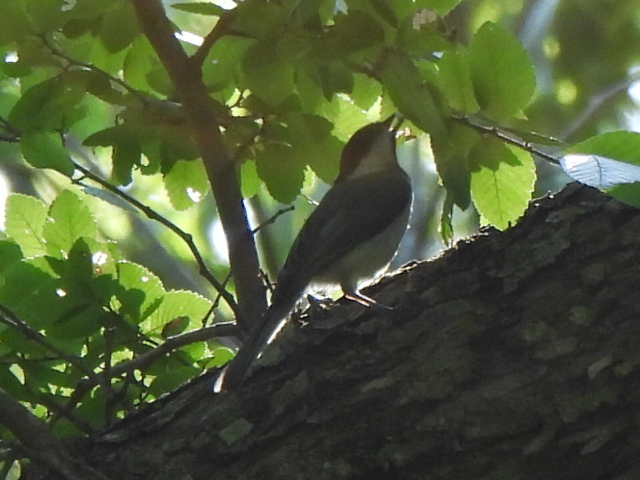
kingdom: Animalia
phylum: Chordata
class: Aves
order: Passeriformes
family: Paridae
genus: Poecile
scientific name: Poecile carolinensis
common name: Carolina chickadee
